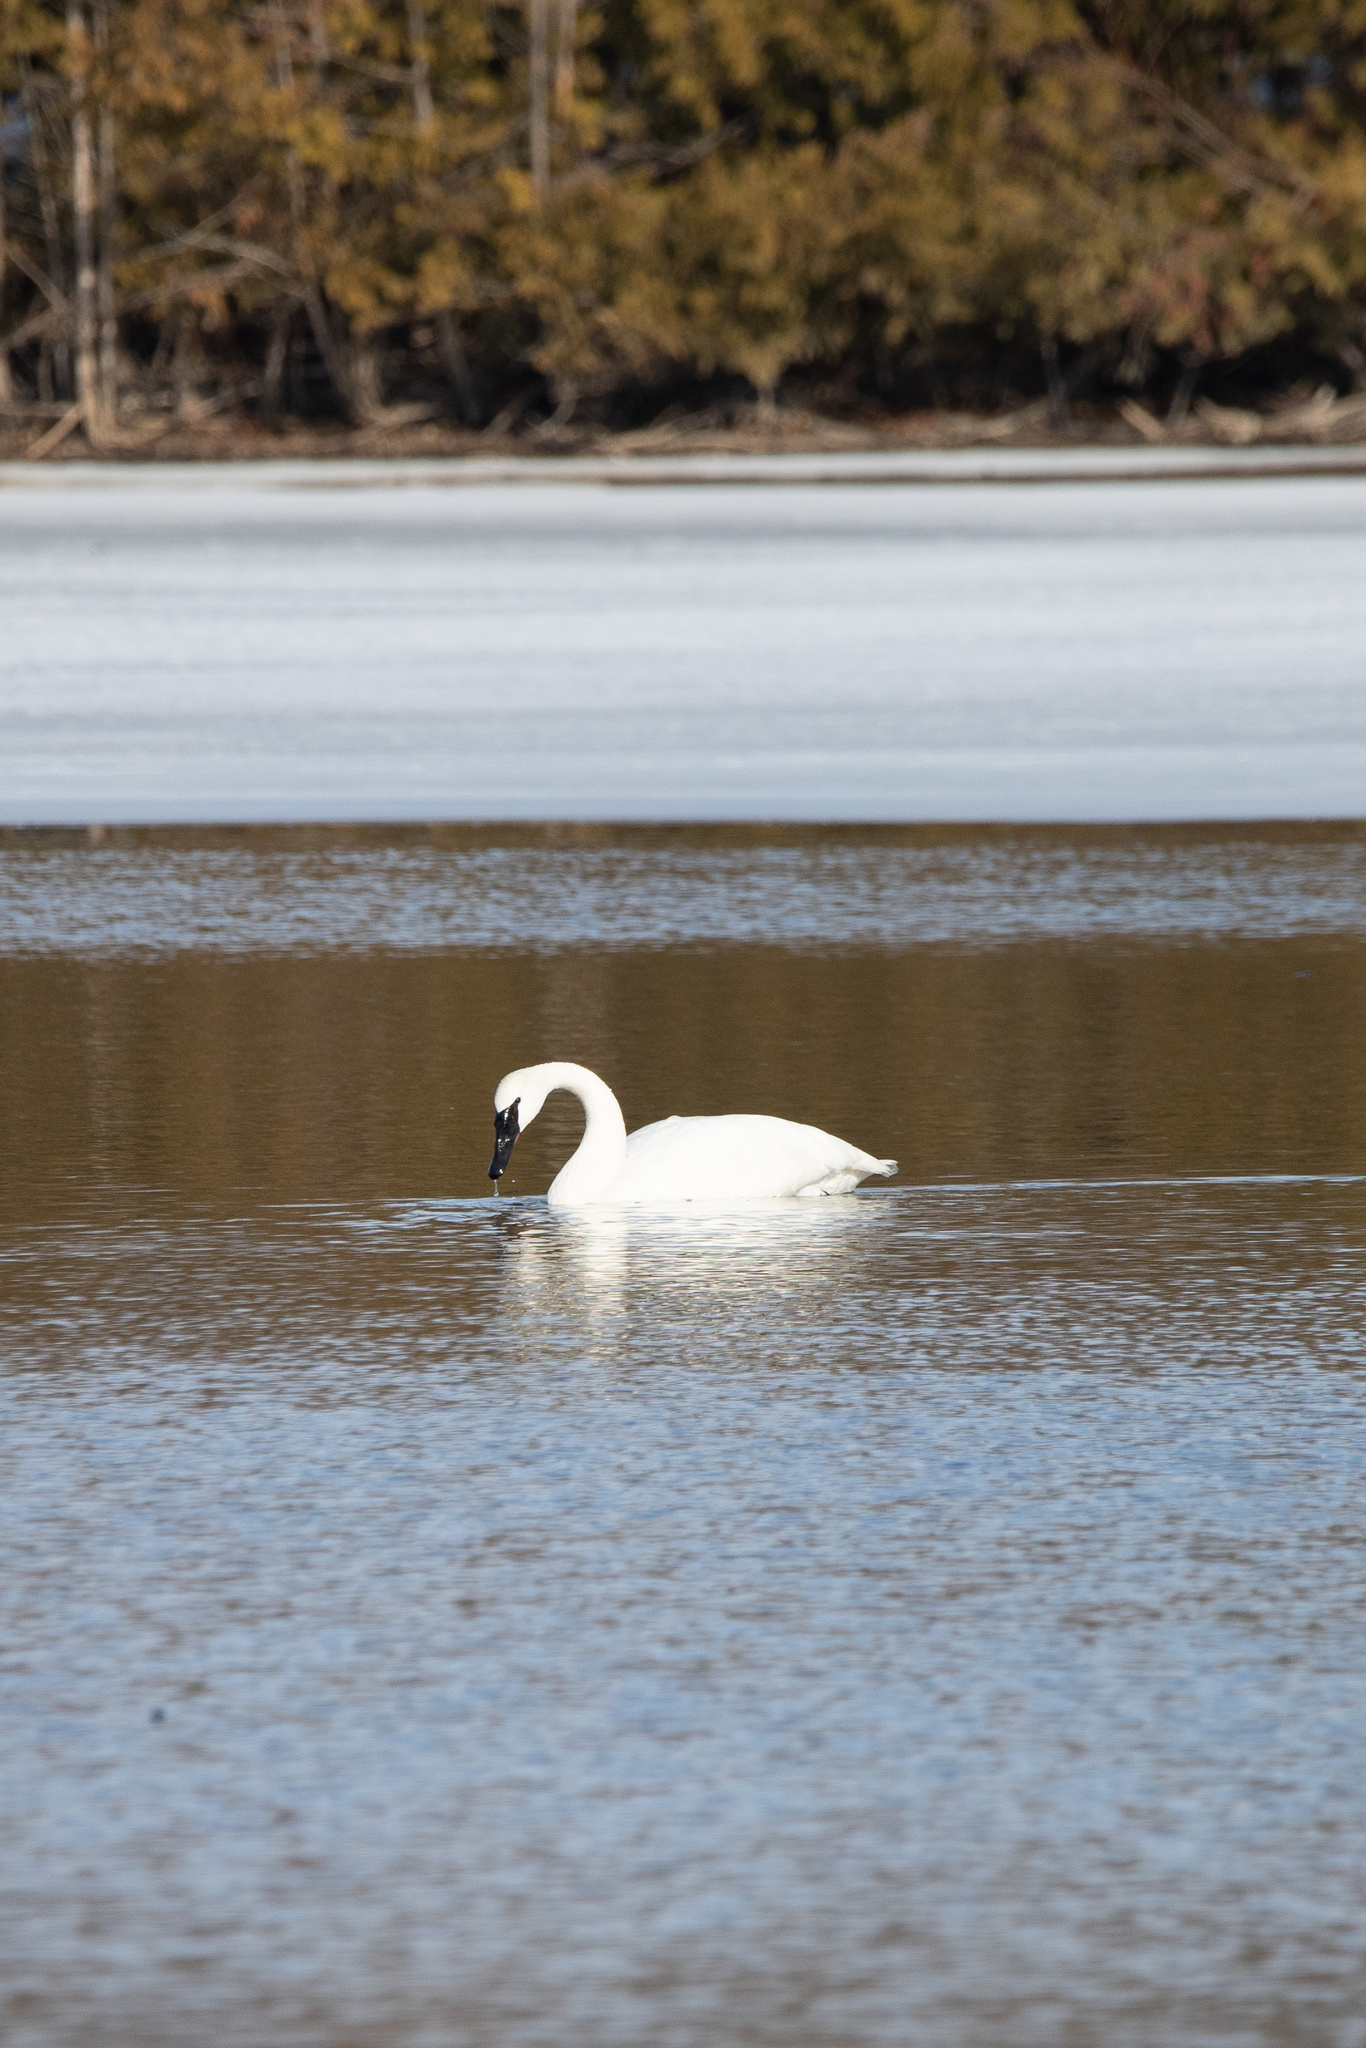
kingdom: Animalia
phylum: Chordata
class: Aves
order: Anseriformes
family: Anatidae
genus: Cygnus
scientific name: Cygnus buccinator
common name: Trumpeter swan
